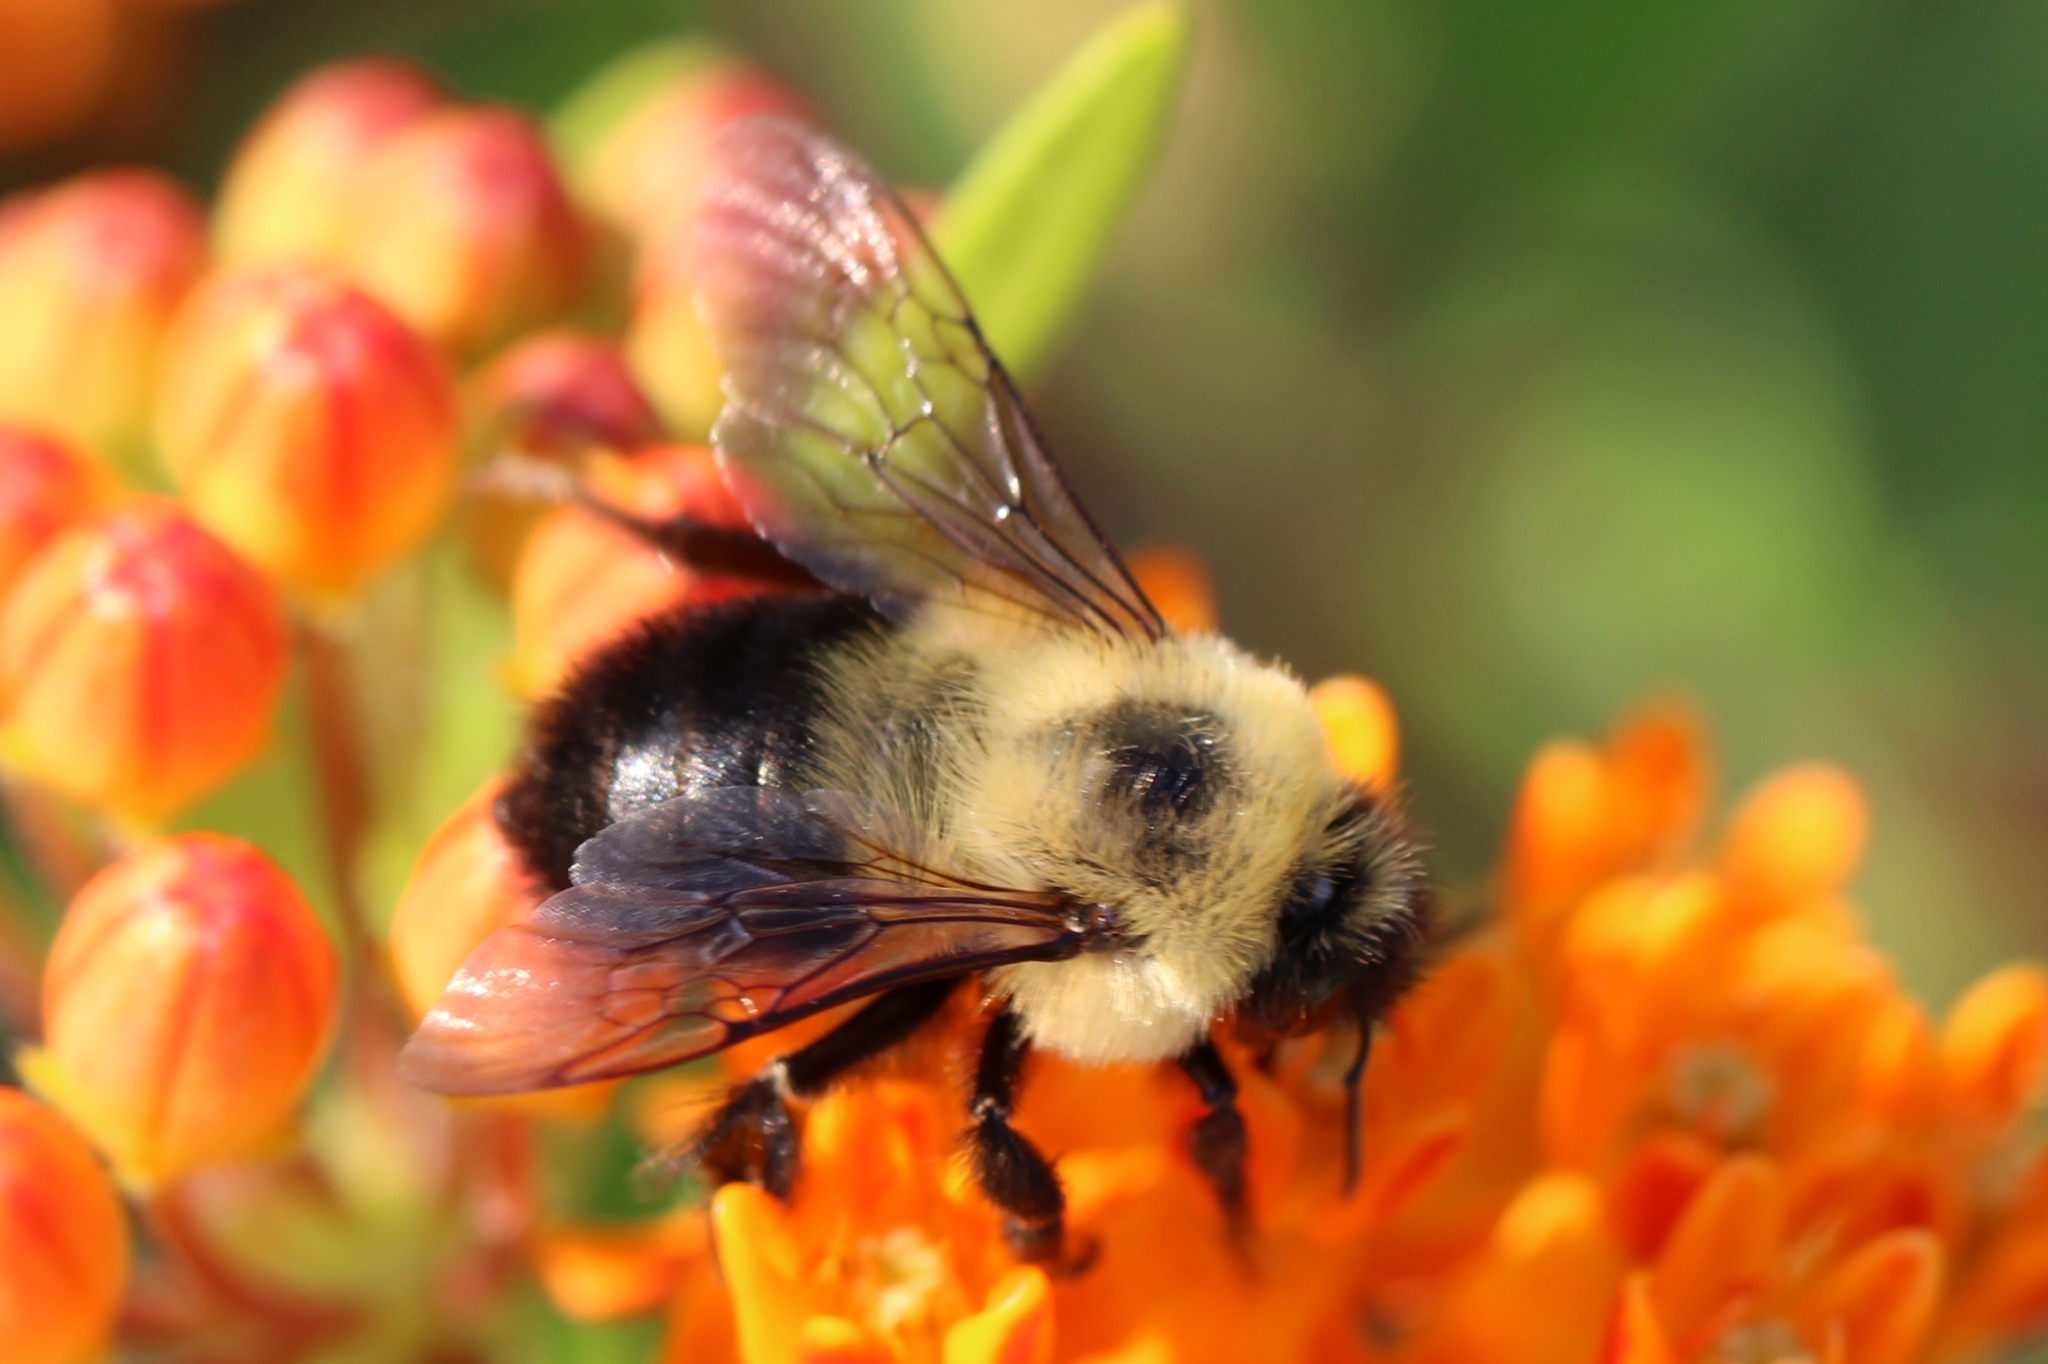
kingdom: Animalia
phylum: Arthropoda
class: Insecta
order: Hymenoptera
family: Apidae
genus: Bombus
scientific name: Bombus bimaculatus
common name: Two-spotted bumble bee
